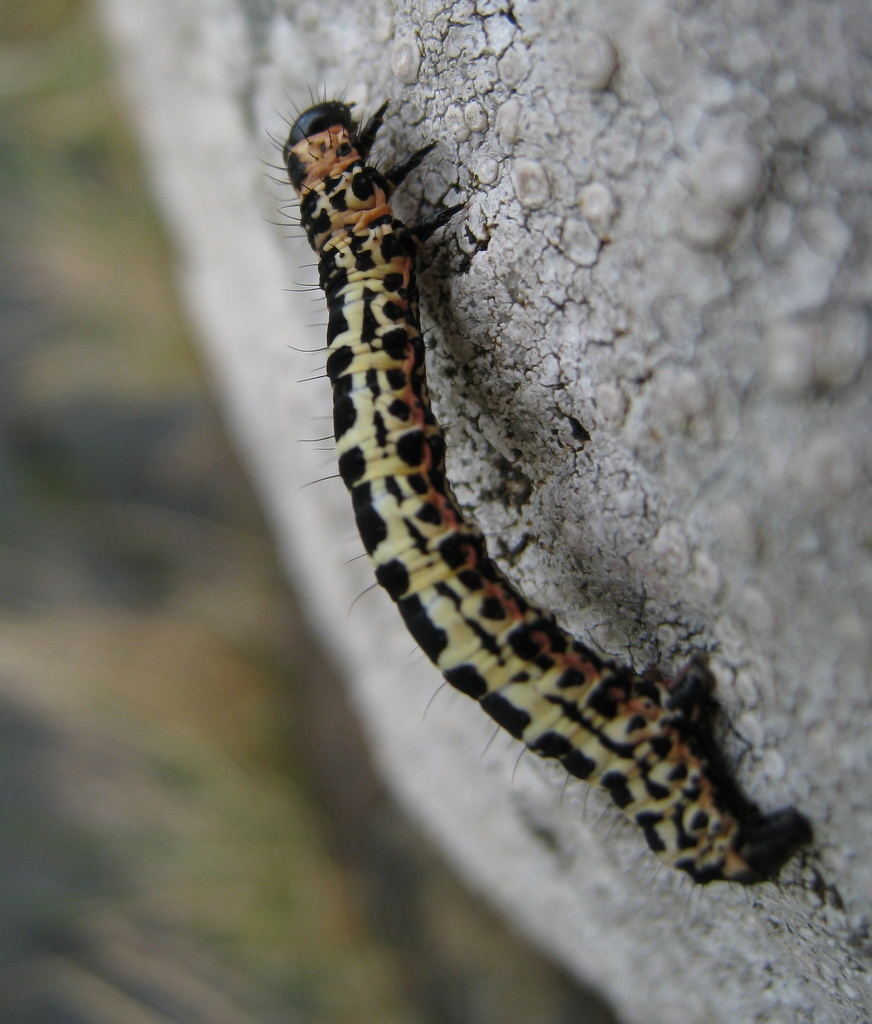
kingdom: Animalia
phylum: Arthropoda
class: Insecta
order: Lepidoptera
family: Geometridae
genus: Abraxas
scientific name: Abraxas grossulariata
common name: Magpie
